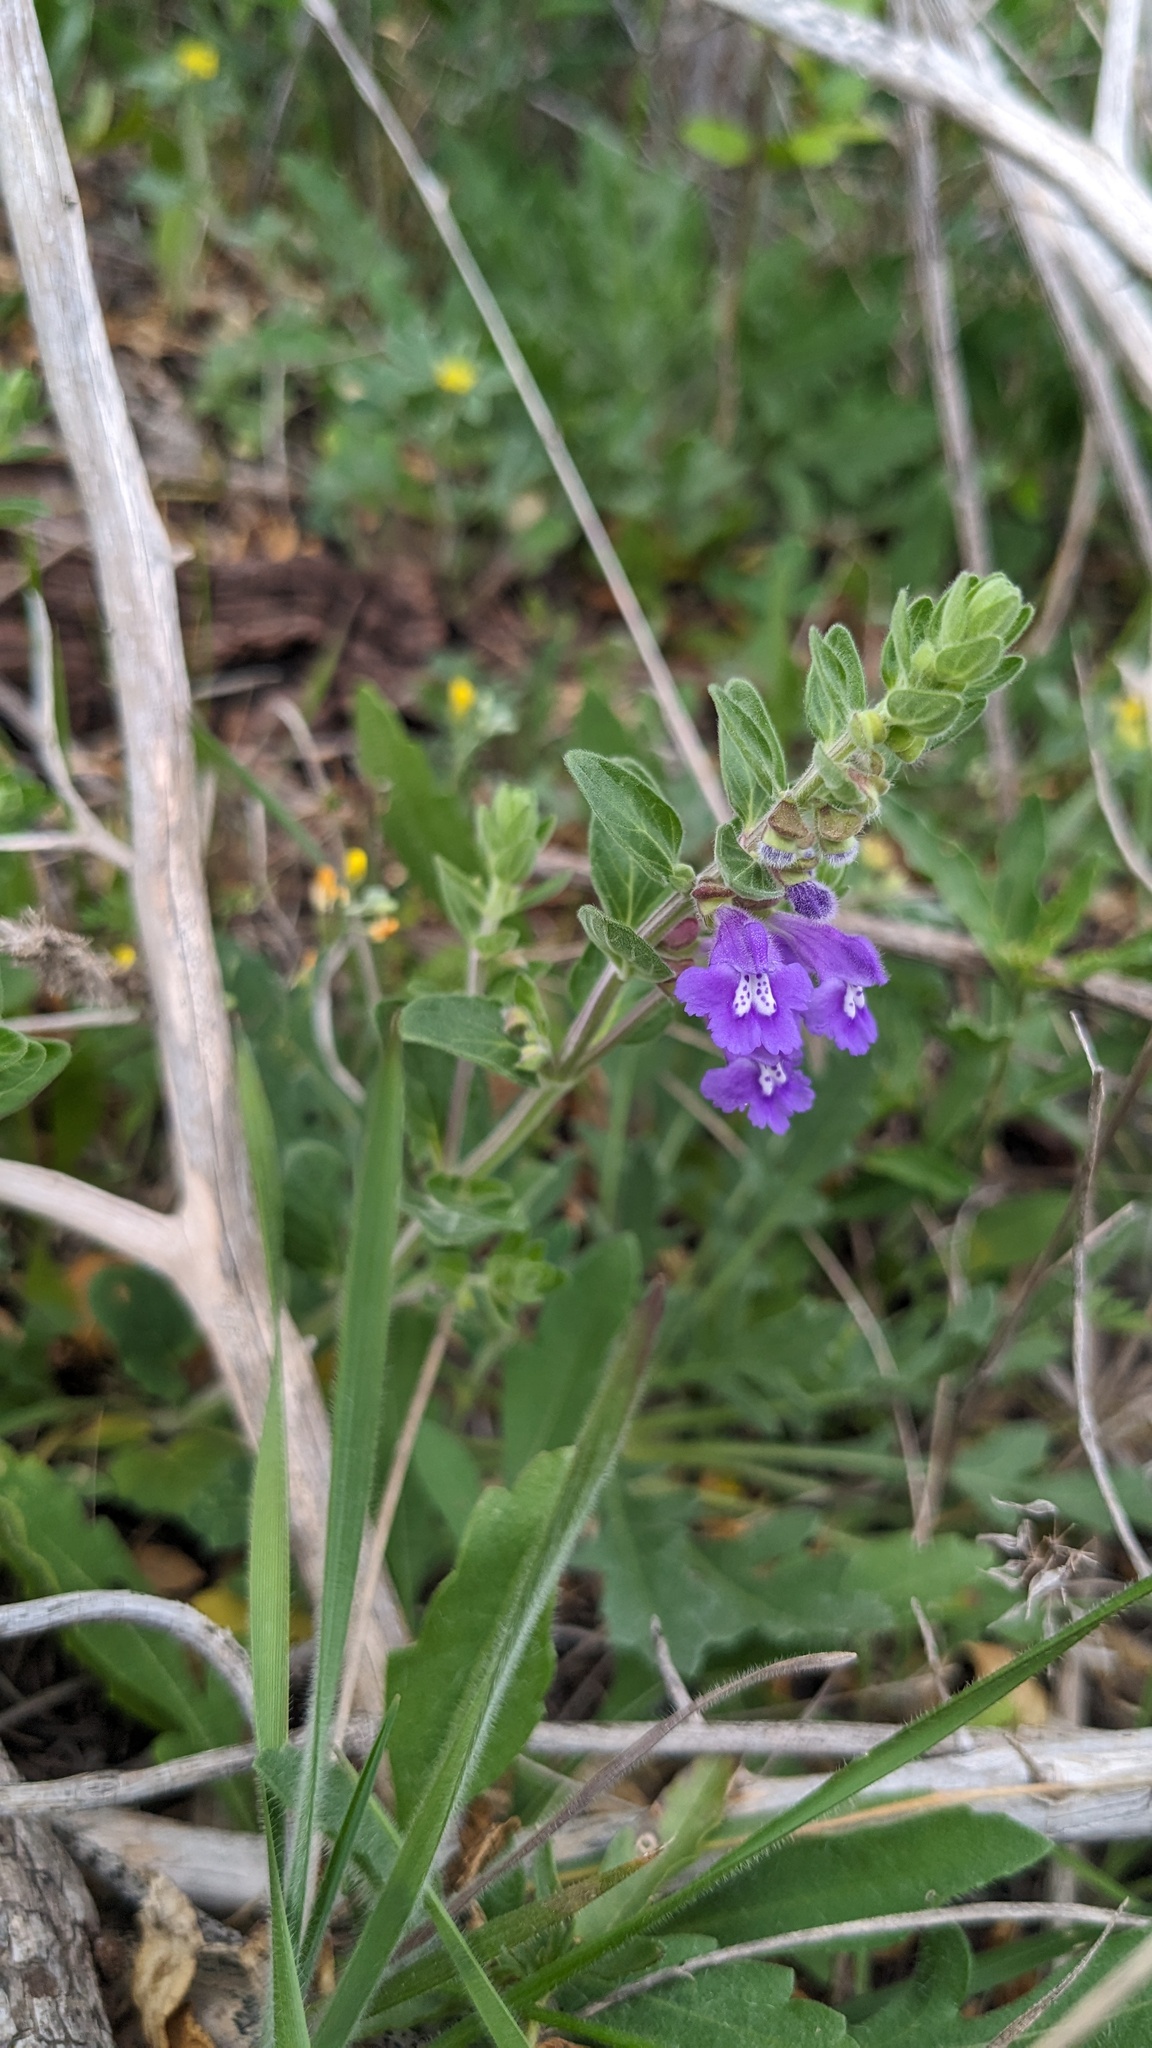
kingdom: Plantae
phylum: Tracheophyta
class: Magnoliopsida
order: Lamiales
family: Lamiaceae
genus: Scutellaria
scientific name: Scutellaria drummondii
